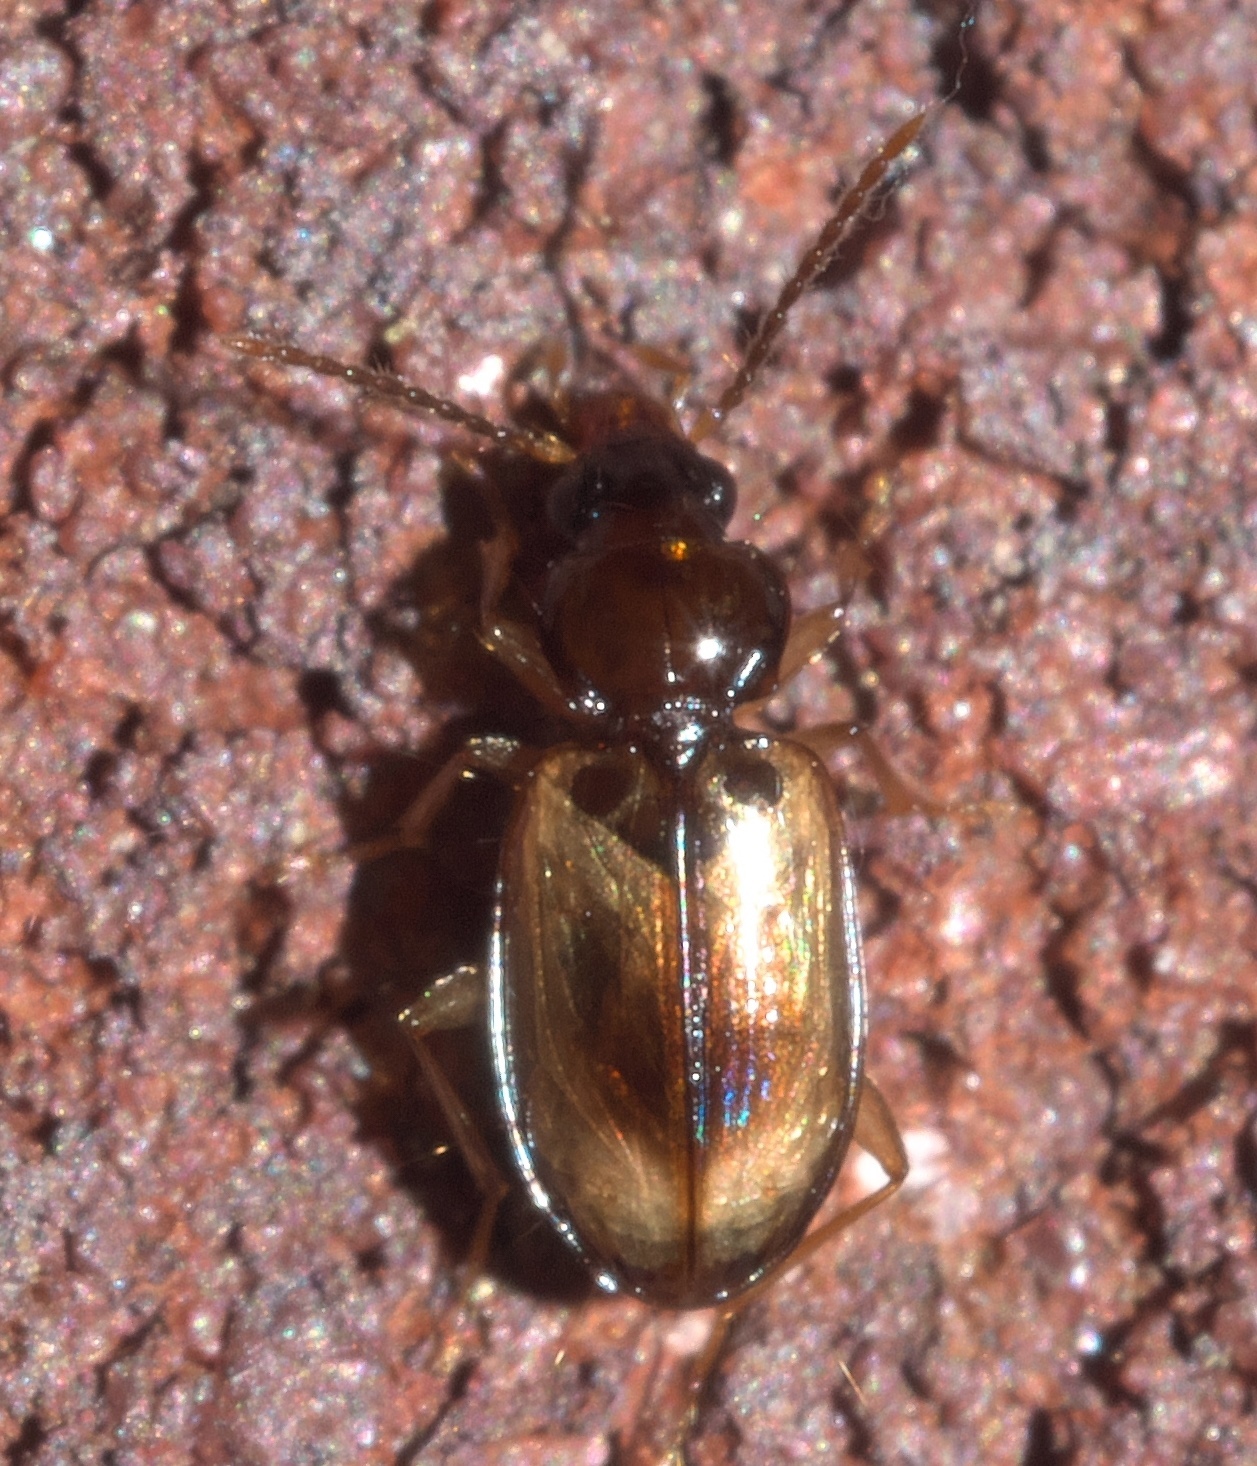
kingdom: Animalia
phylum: Arthropoda
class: Insecta
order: Coleoptera
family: Carabidae
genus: Tachys
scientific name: Tachys proximus
